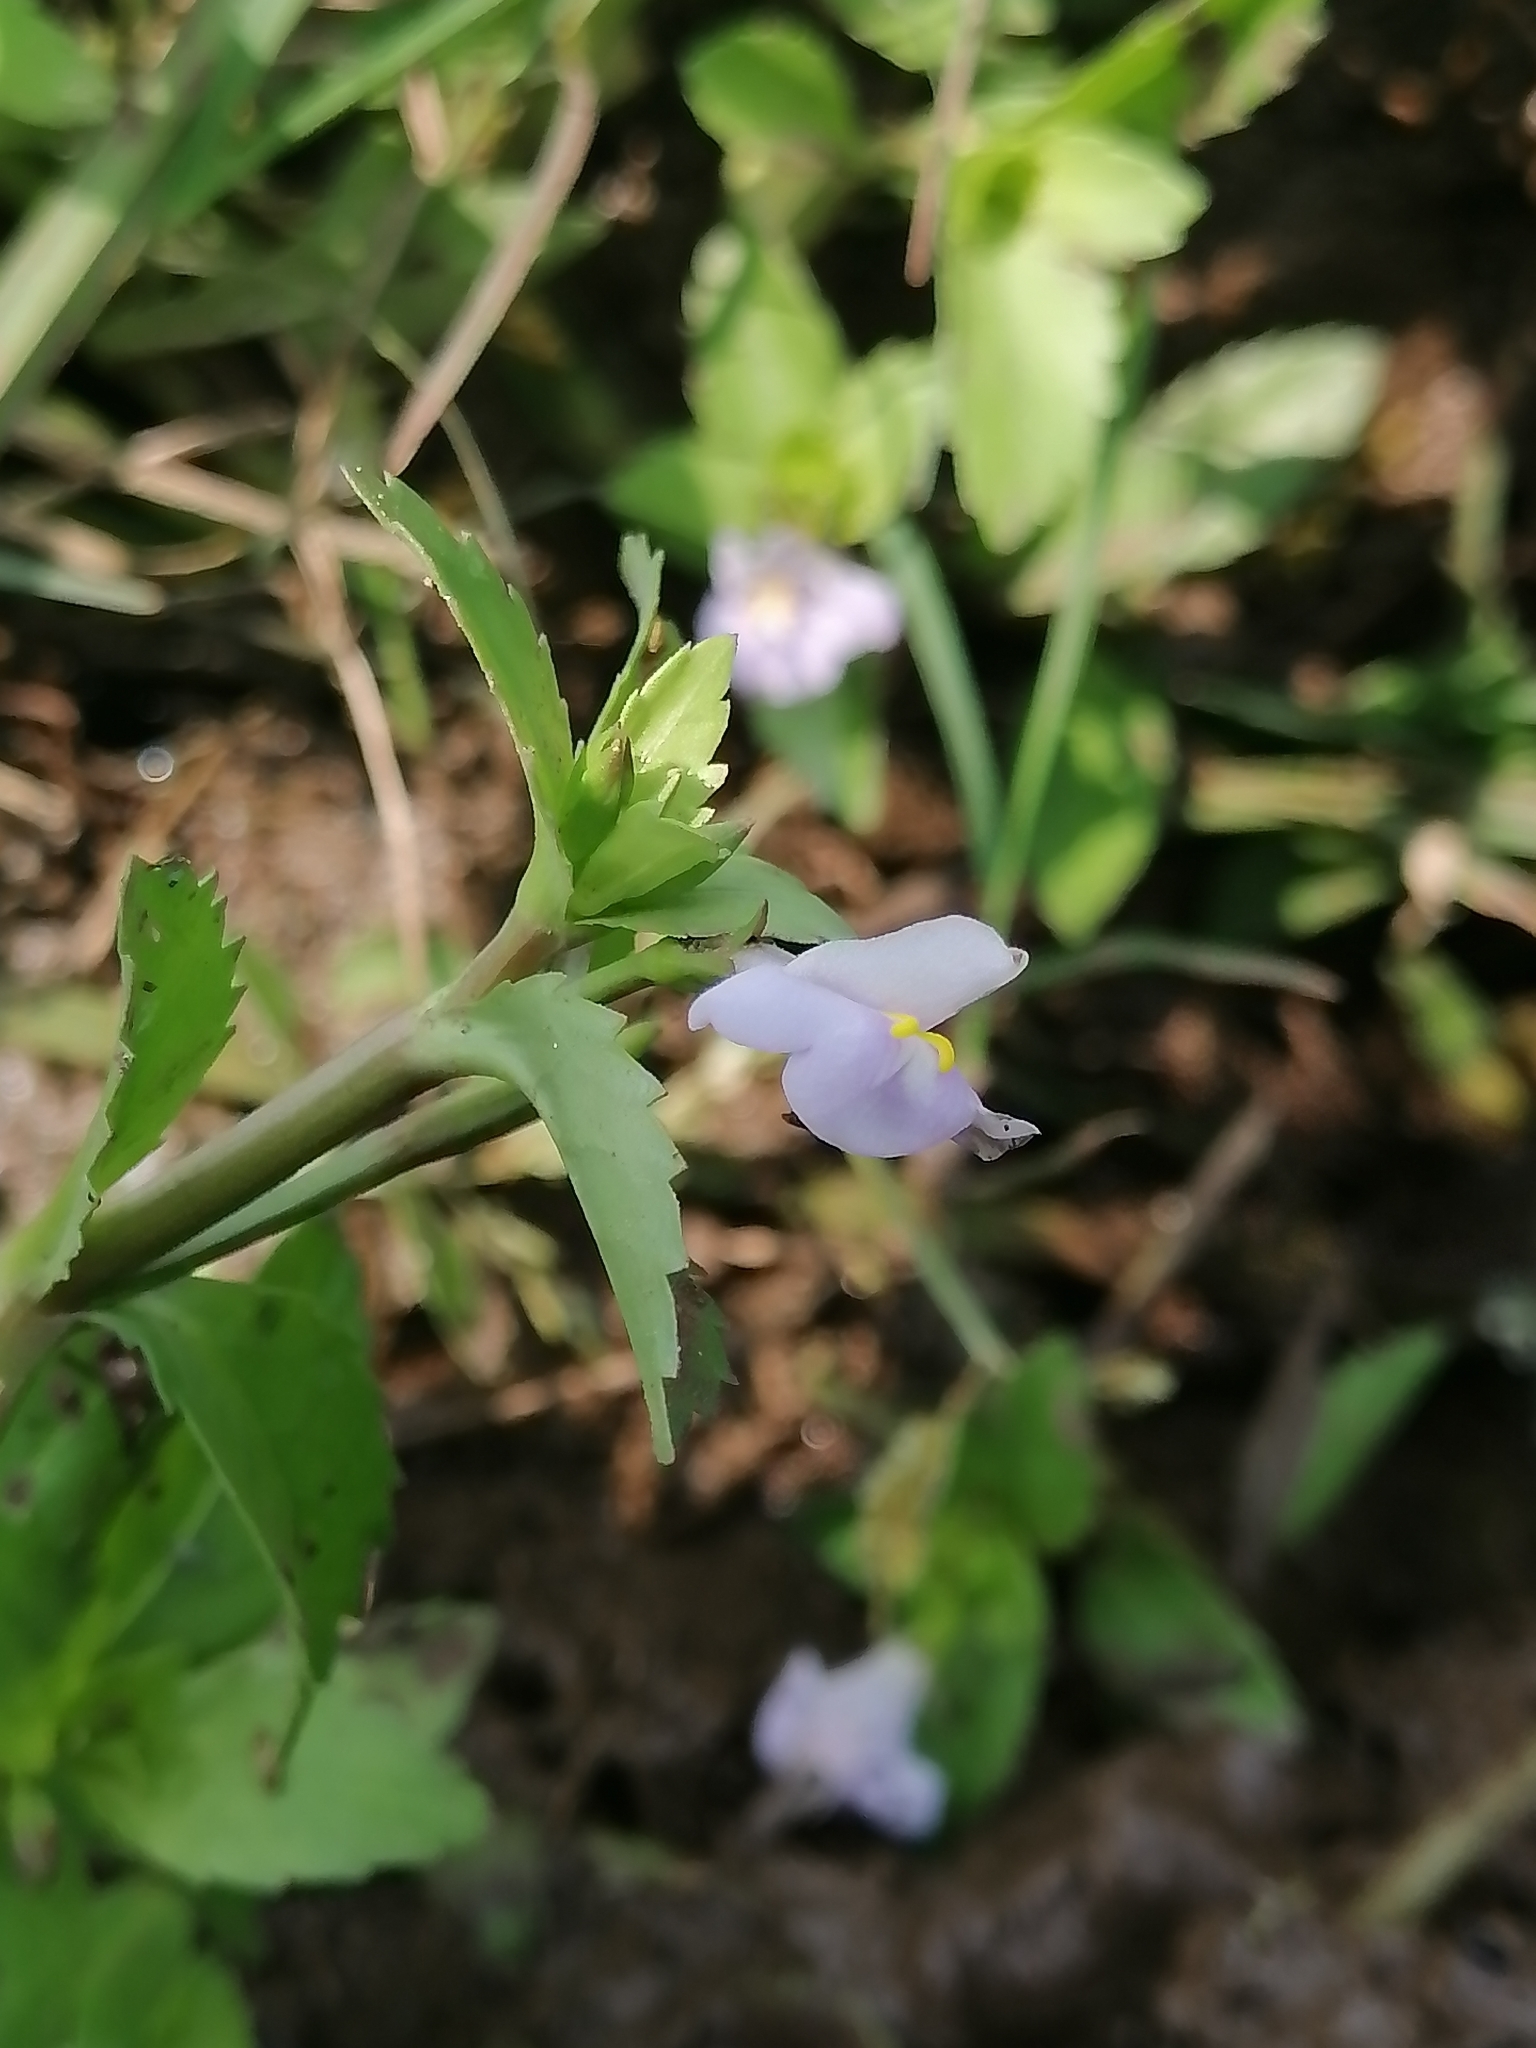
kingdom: Plantae
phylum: Tracheophyta
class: Magnoliopsida
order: Lamiales
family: Linderniaceae
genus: Bonnaya
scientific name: Bonnaya antipoda
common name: Sparrow false pimpernel
